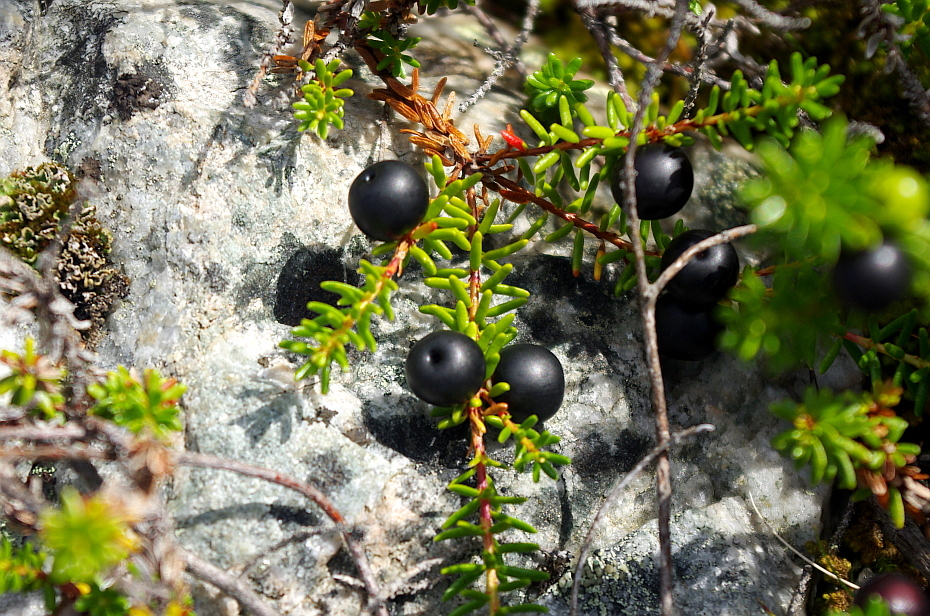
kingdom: Plantae
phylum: Tracheophyta
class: Magnoliopsida
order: Ericales
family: Ericaceae
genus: Empetrum
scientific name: Empetrum nigrum
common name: Black crowberry
